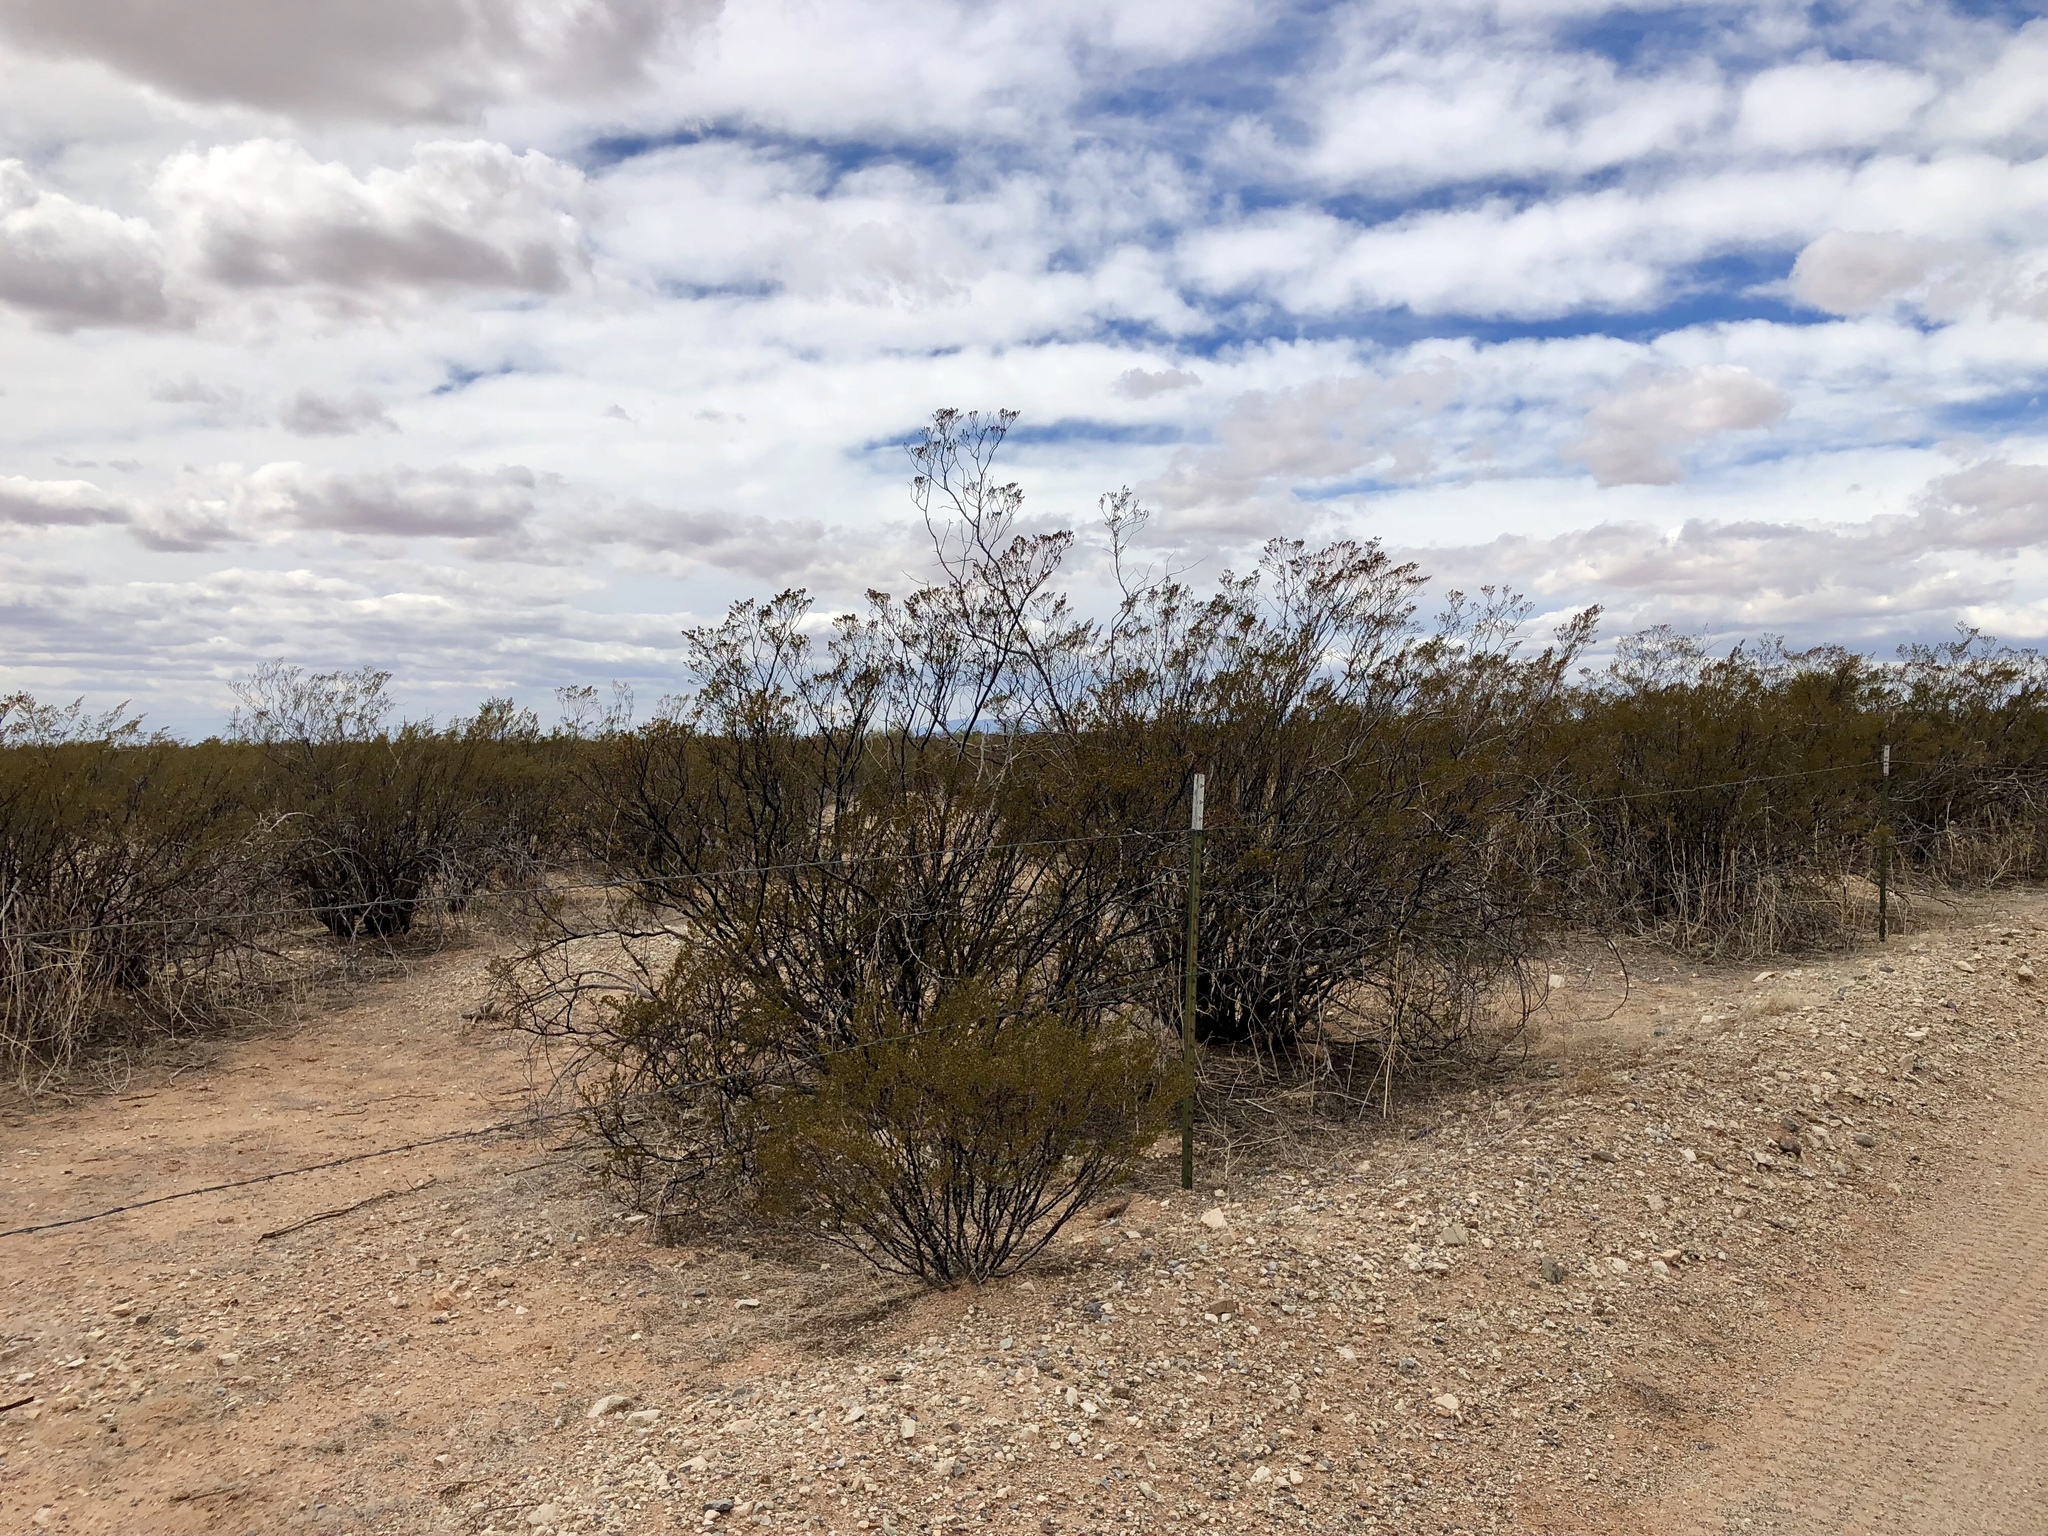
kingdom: Plantae
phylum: Tracheophyta
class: Magnoliopsida
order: Zygophyllales
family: Zygophyllaceae
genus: Larrea
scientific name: Larrea tridentata
